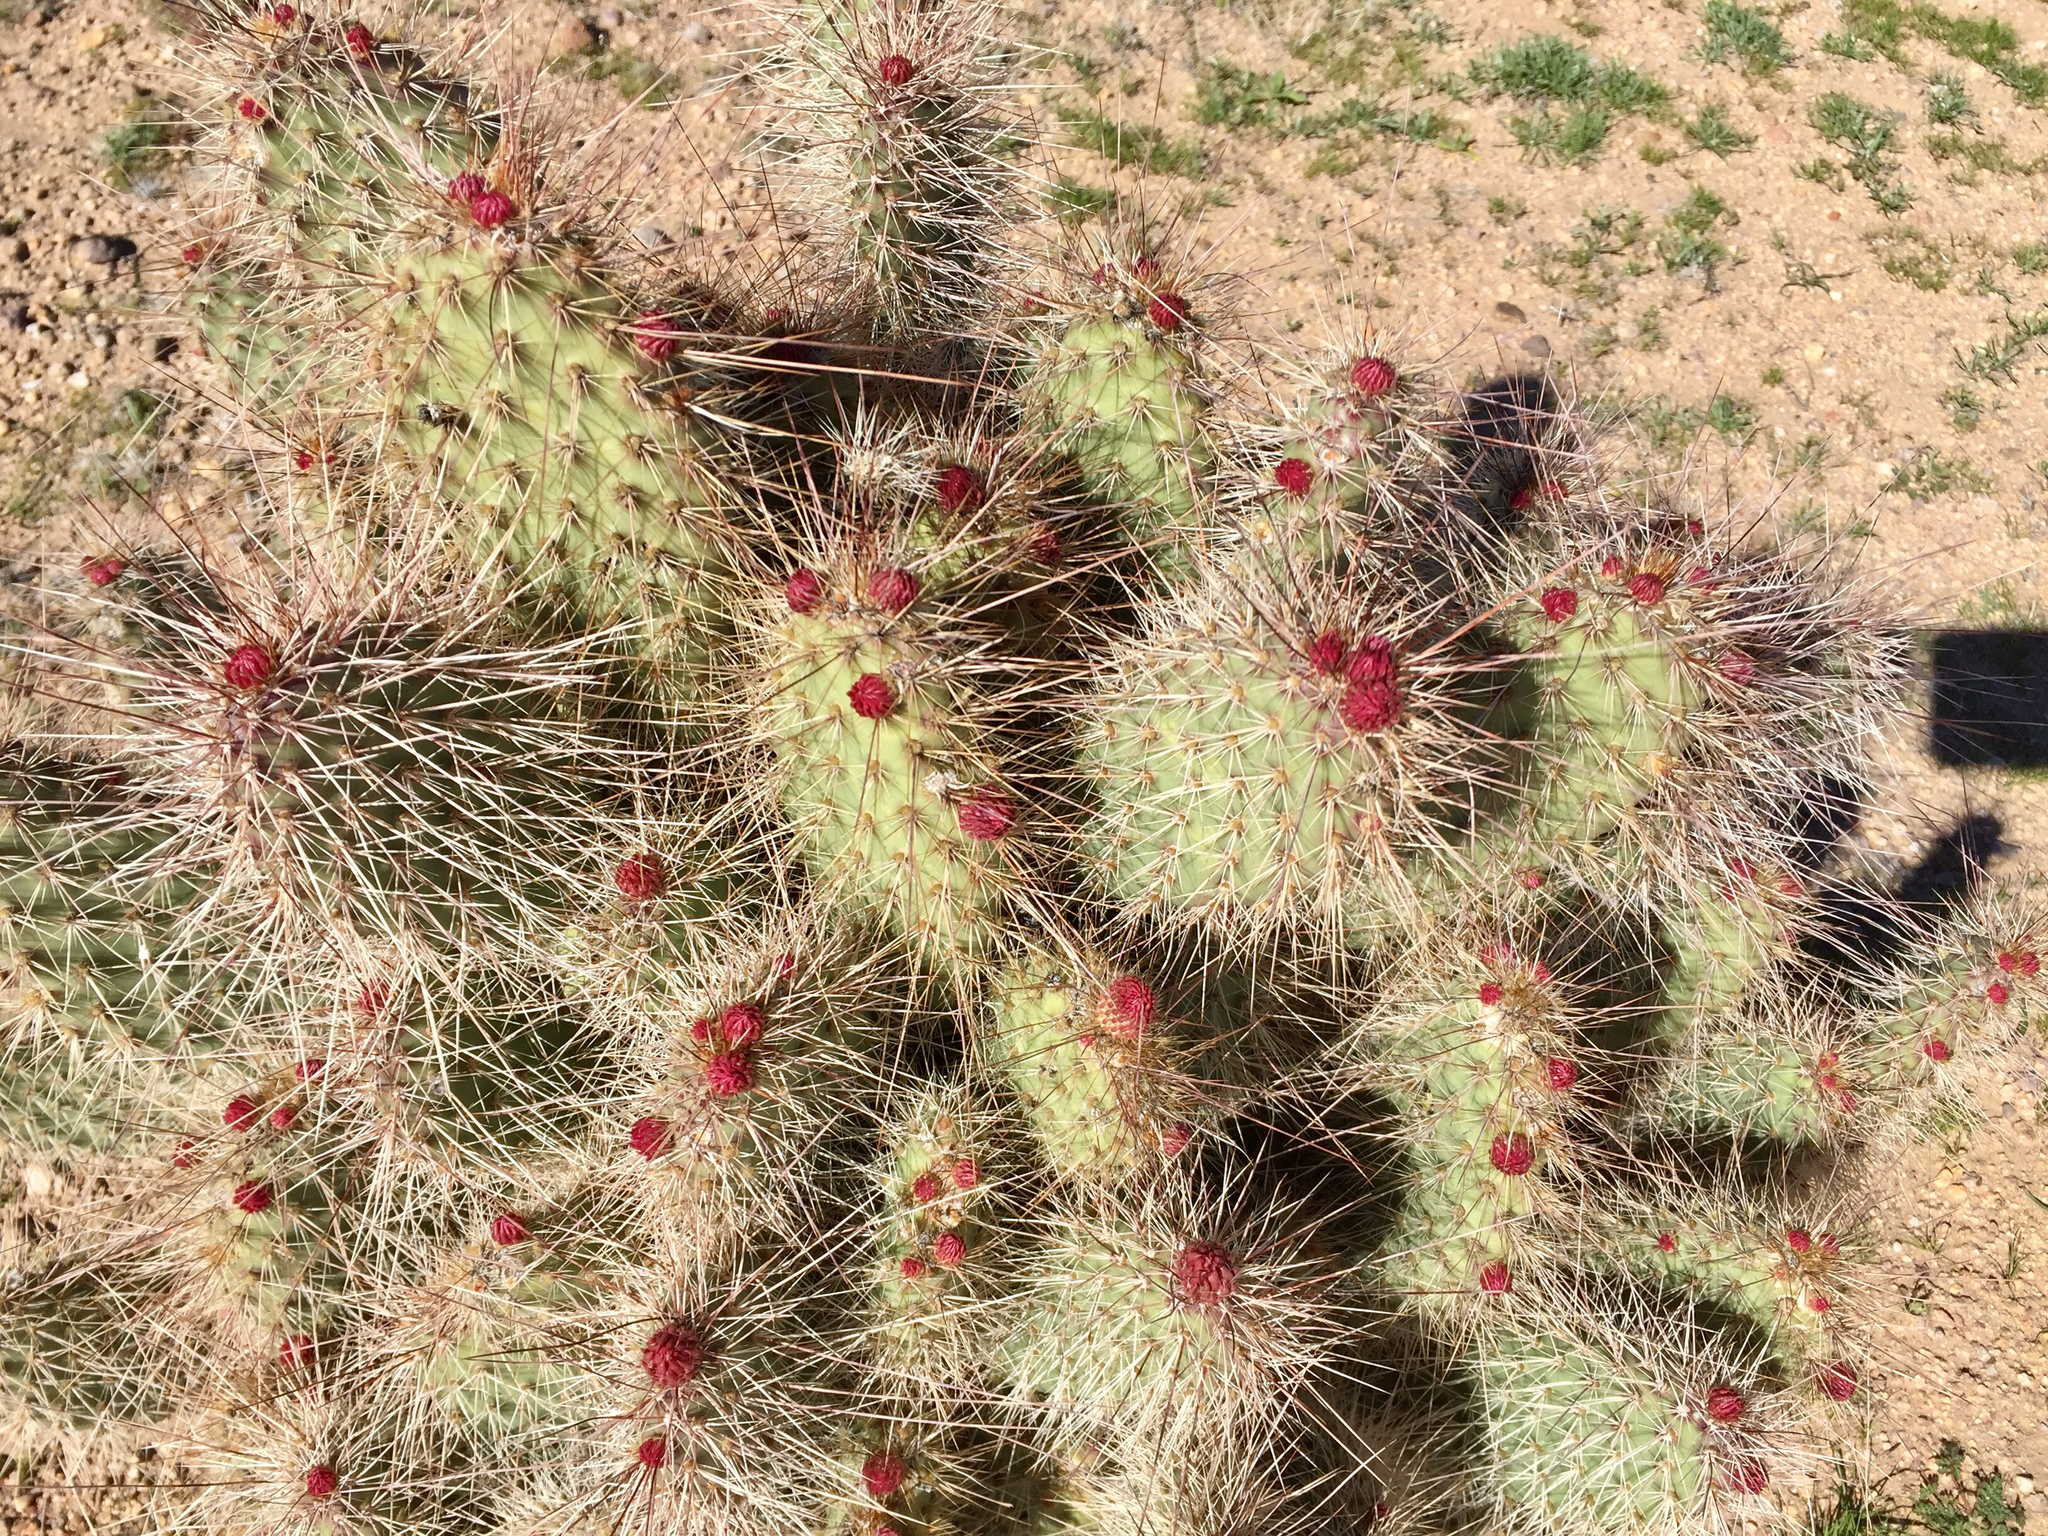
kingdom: Plantae
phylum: Tracheophyta
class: Magnoliopsida
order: Caryophyllales
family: Cactaceae
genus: Opuntia
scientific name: Opuntia polyacantha
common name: Plains prickly-pear
